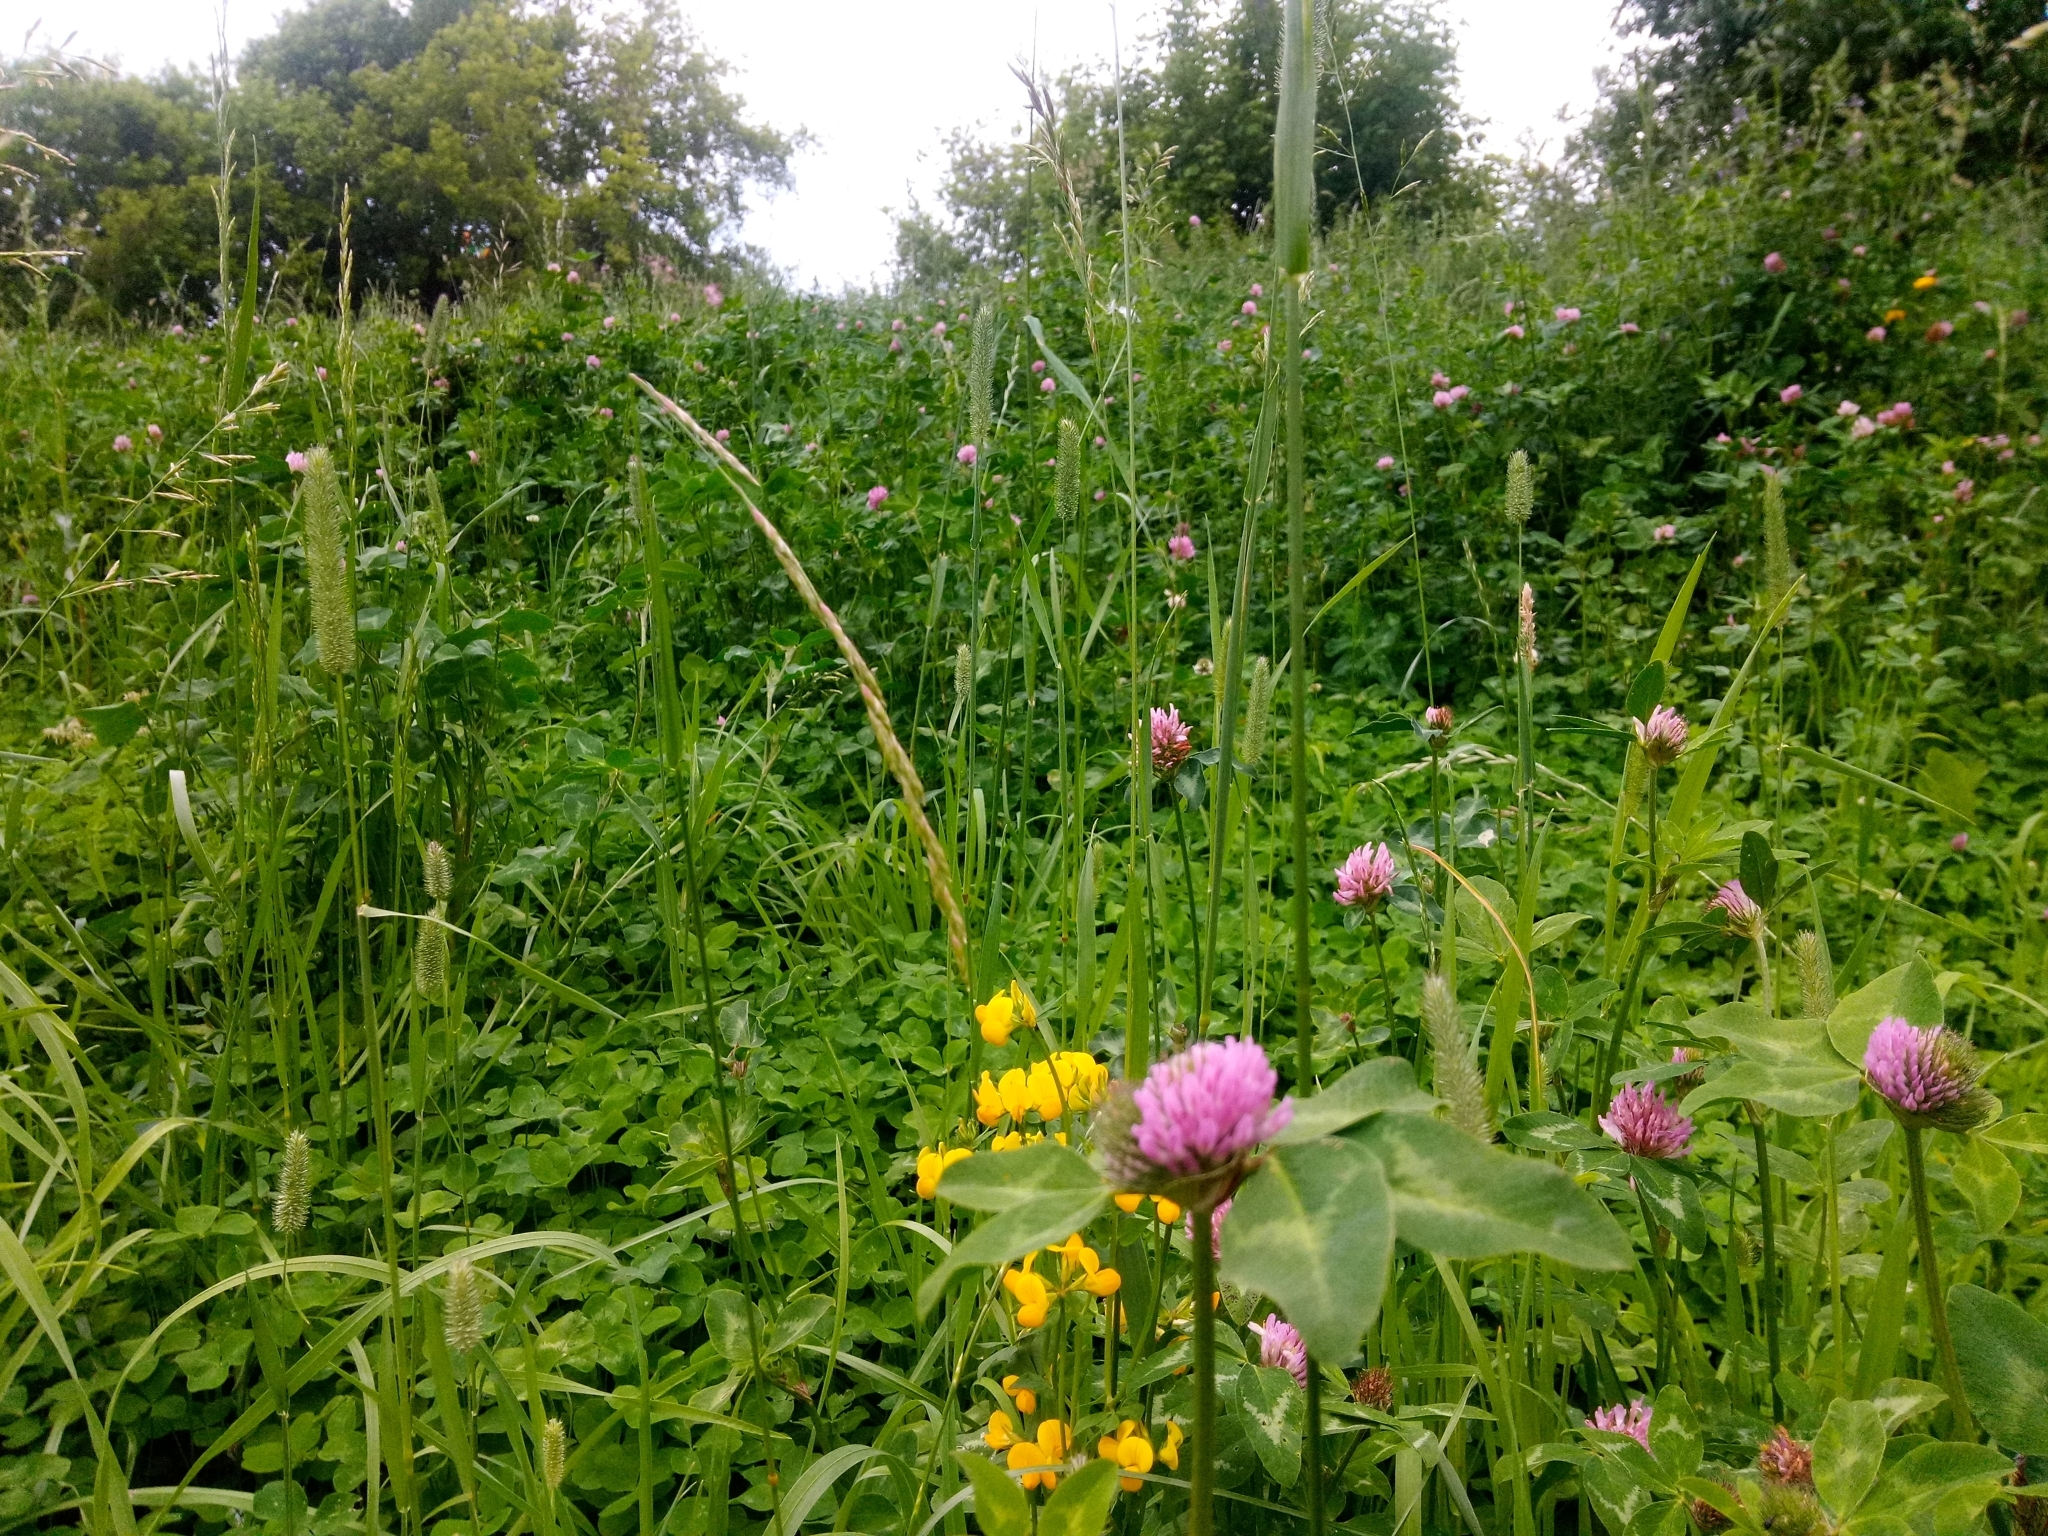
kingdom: Plantae
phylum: Tracheophyta
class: Magnoliopsida
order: Fabales
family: Fabaceae
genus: Trifolium
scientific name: Trifolium pratense
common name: Red clover
